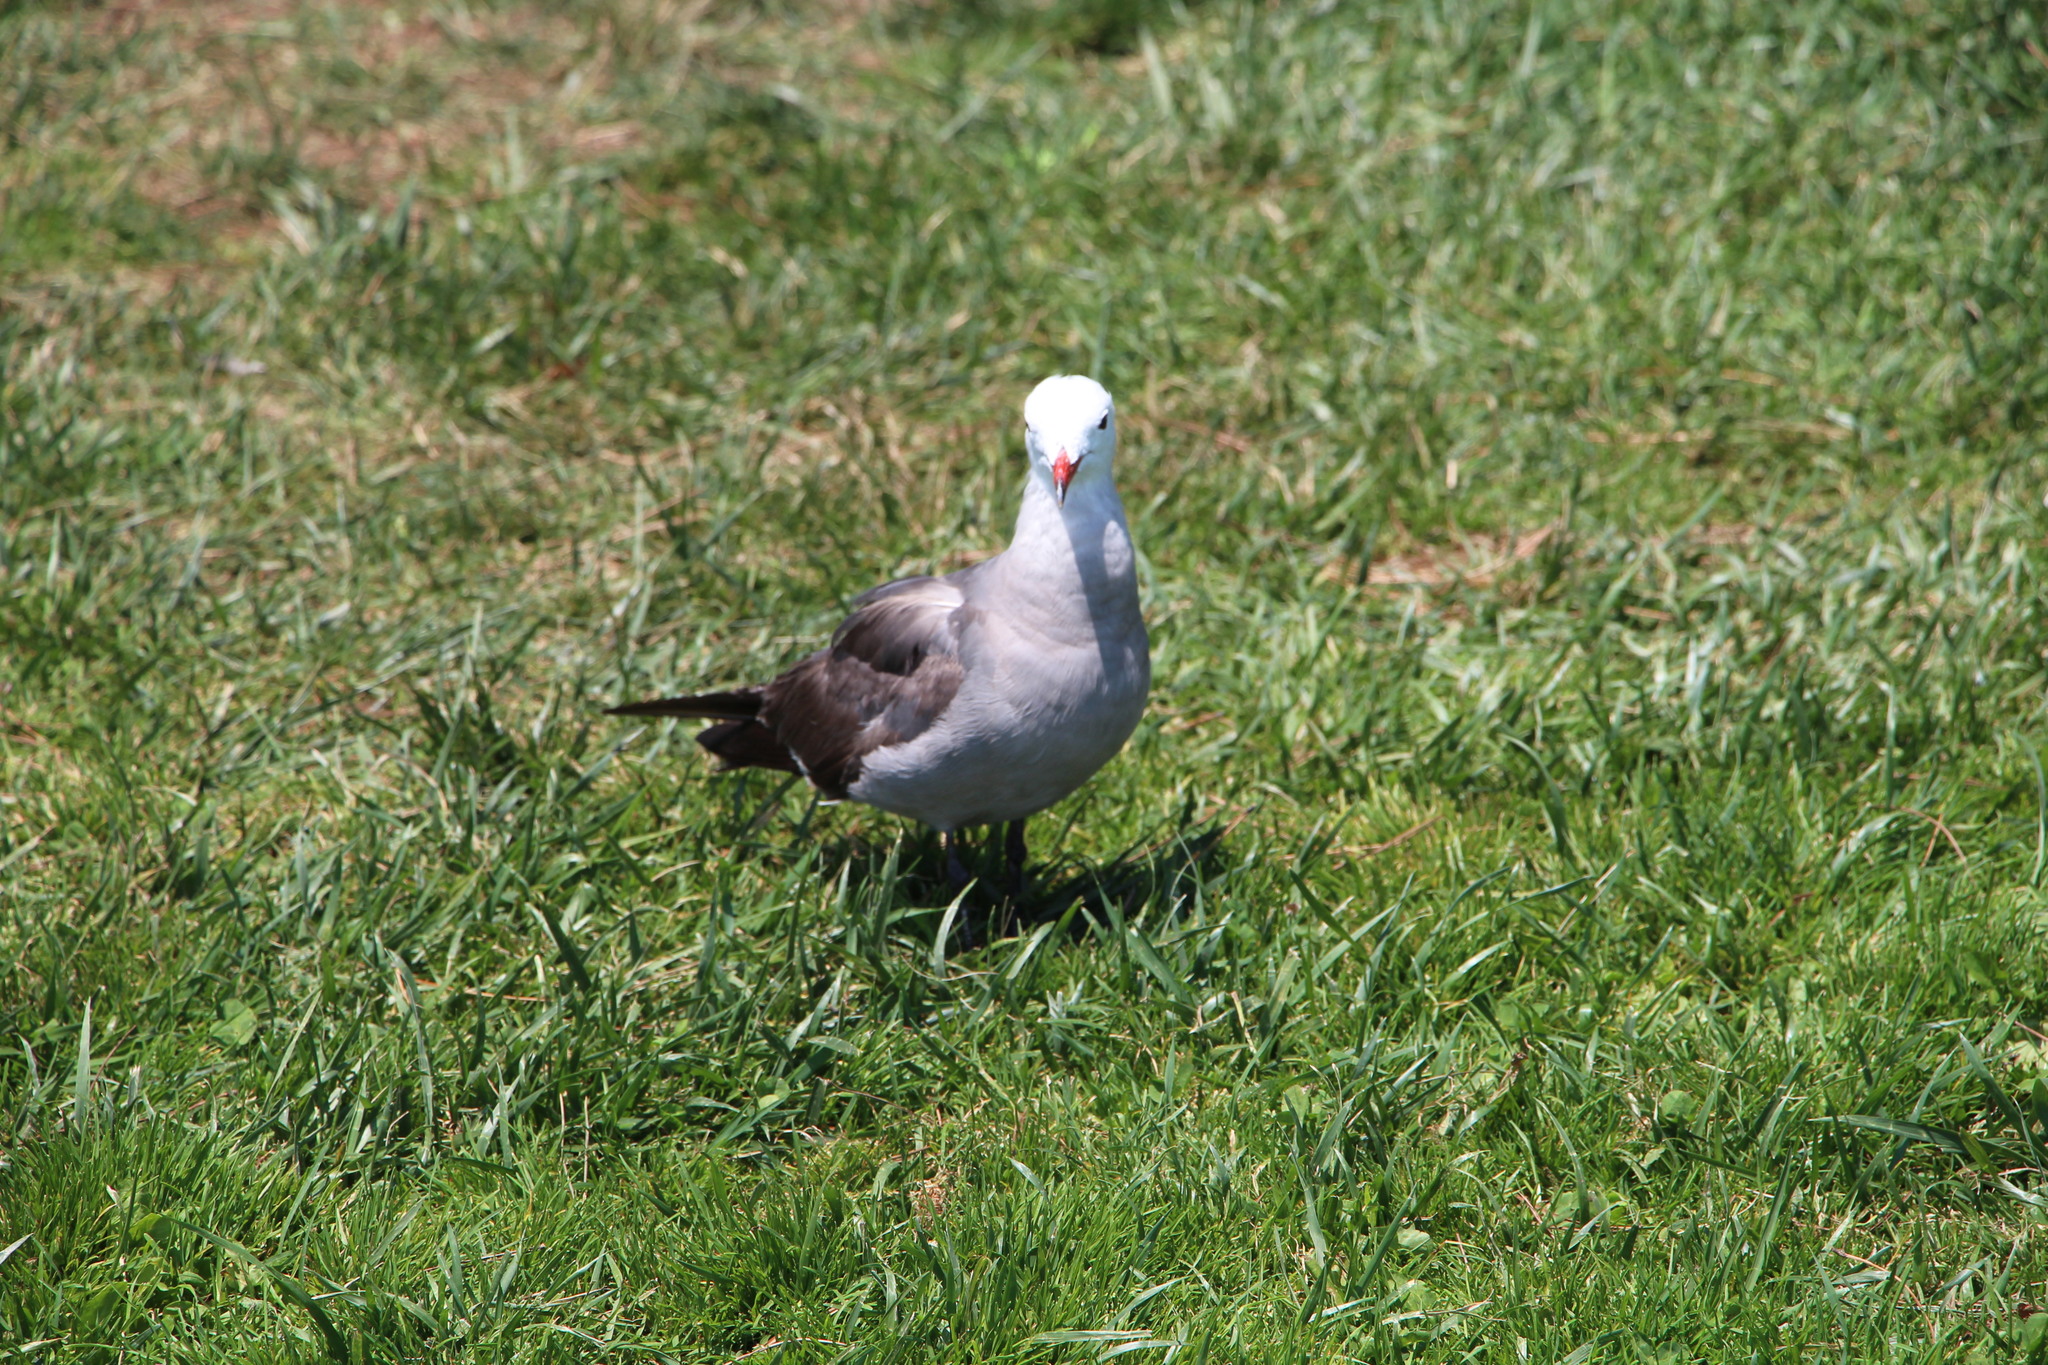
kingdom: Animalia
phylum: Chordata
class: Aves
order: Charadriiformes
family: Laridae
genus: Larus
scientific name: Larus heermanni
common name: Heermann's gull
